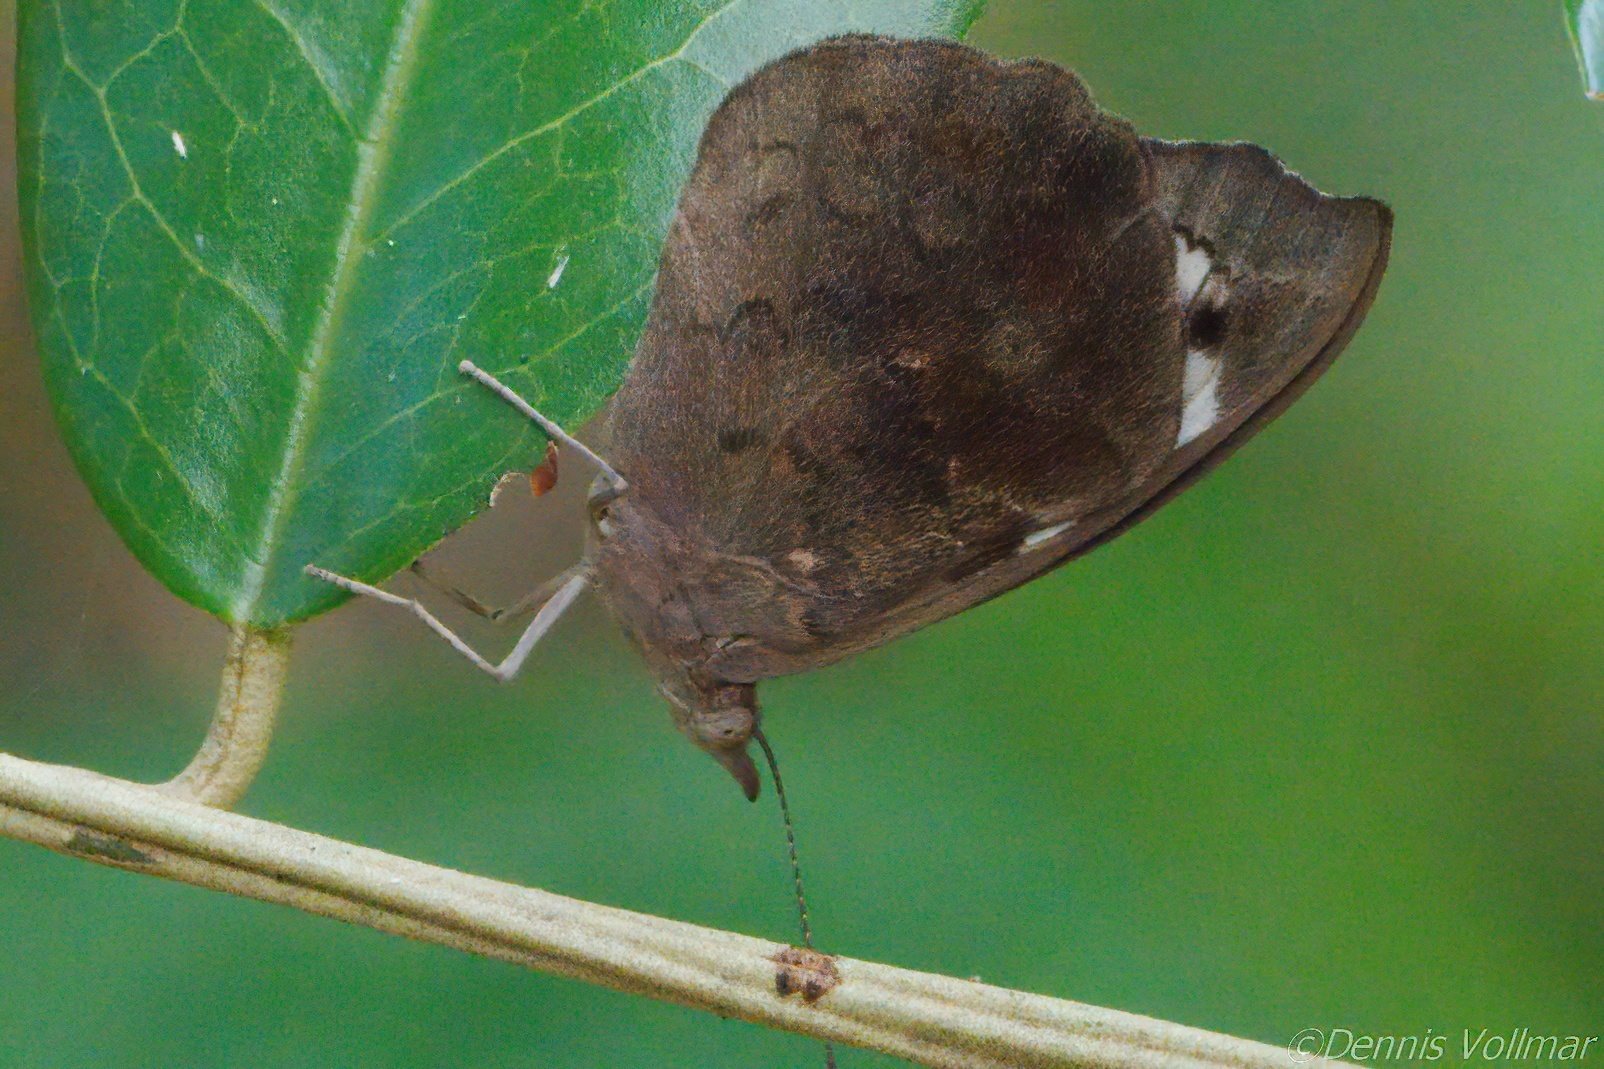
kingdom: Animalia
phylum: Arthropoda
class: Insecta
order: Lepidoptera
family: Nymphalidae
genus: Eunica
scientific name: Eunica tatila
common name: Florida purplewing
